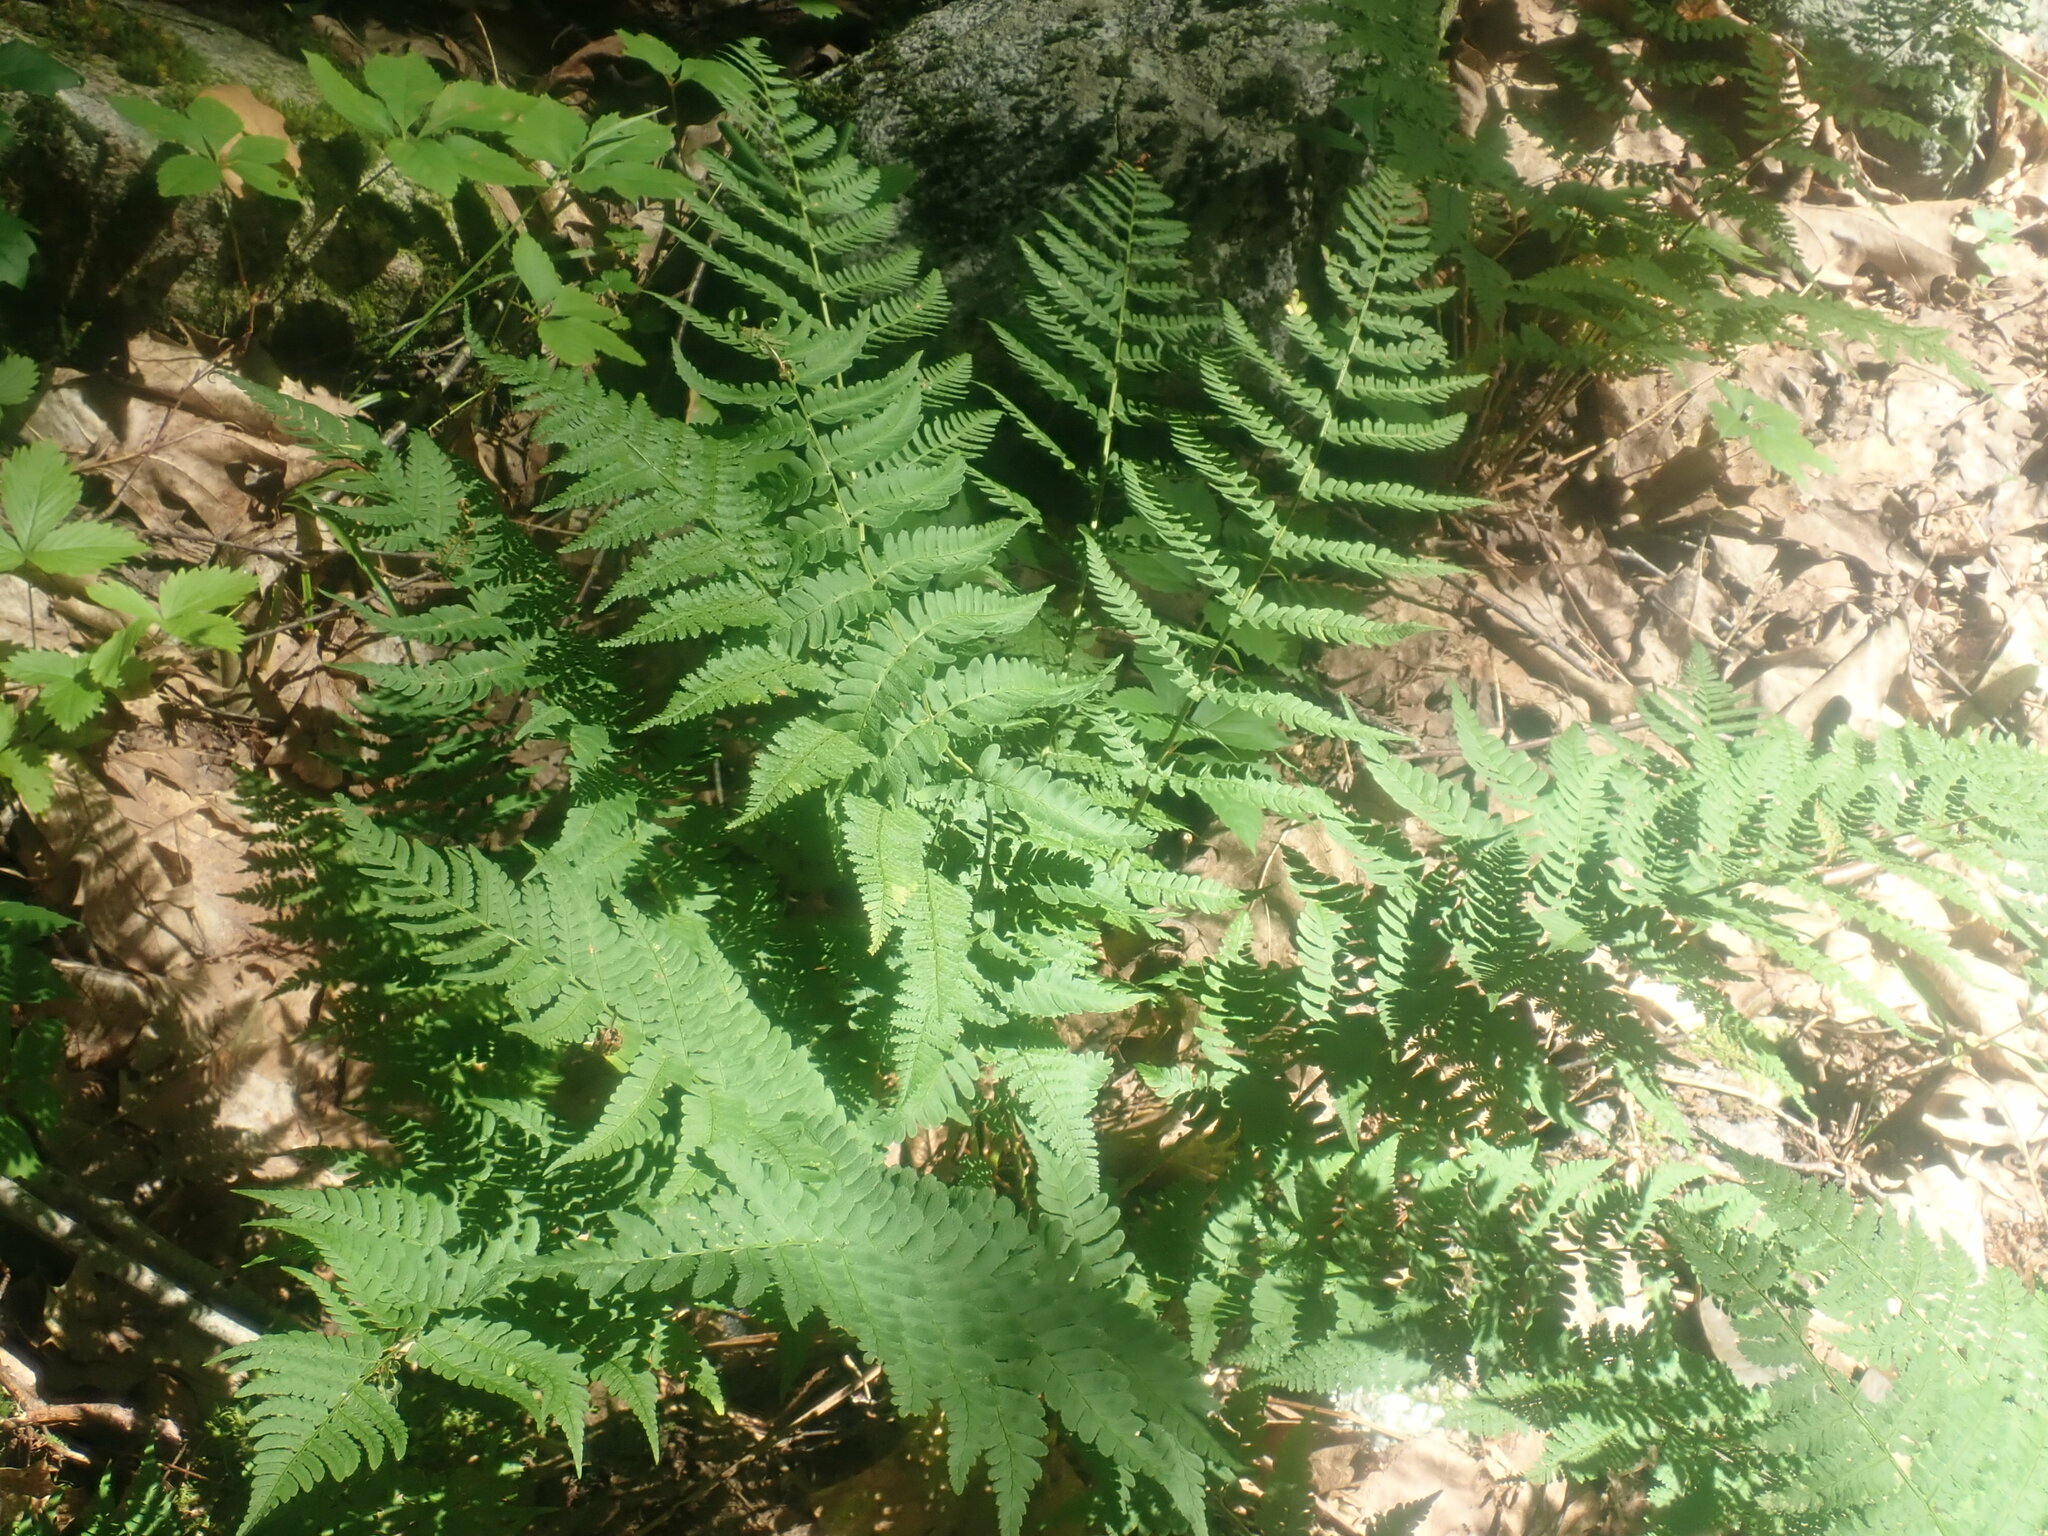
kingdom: Plantae
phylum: Tracheophyta
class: Polypodiopsida
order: Polypodiales
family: Dryopteridaceae
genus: Dryopteris
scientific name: Dryopteris marginalis
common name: Marginal wood fern
